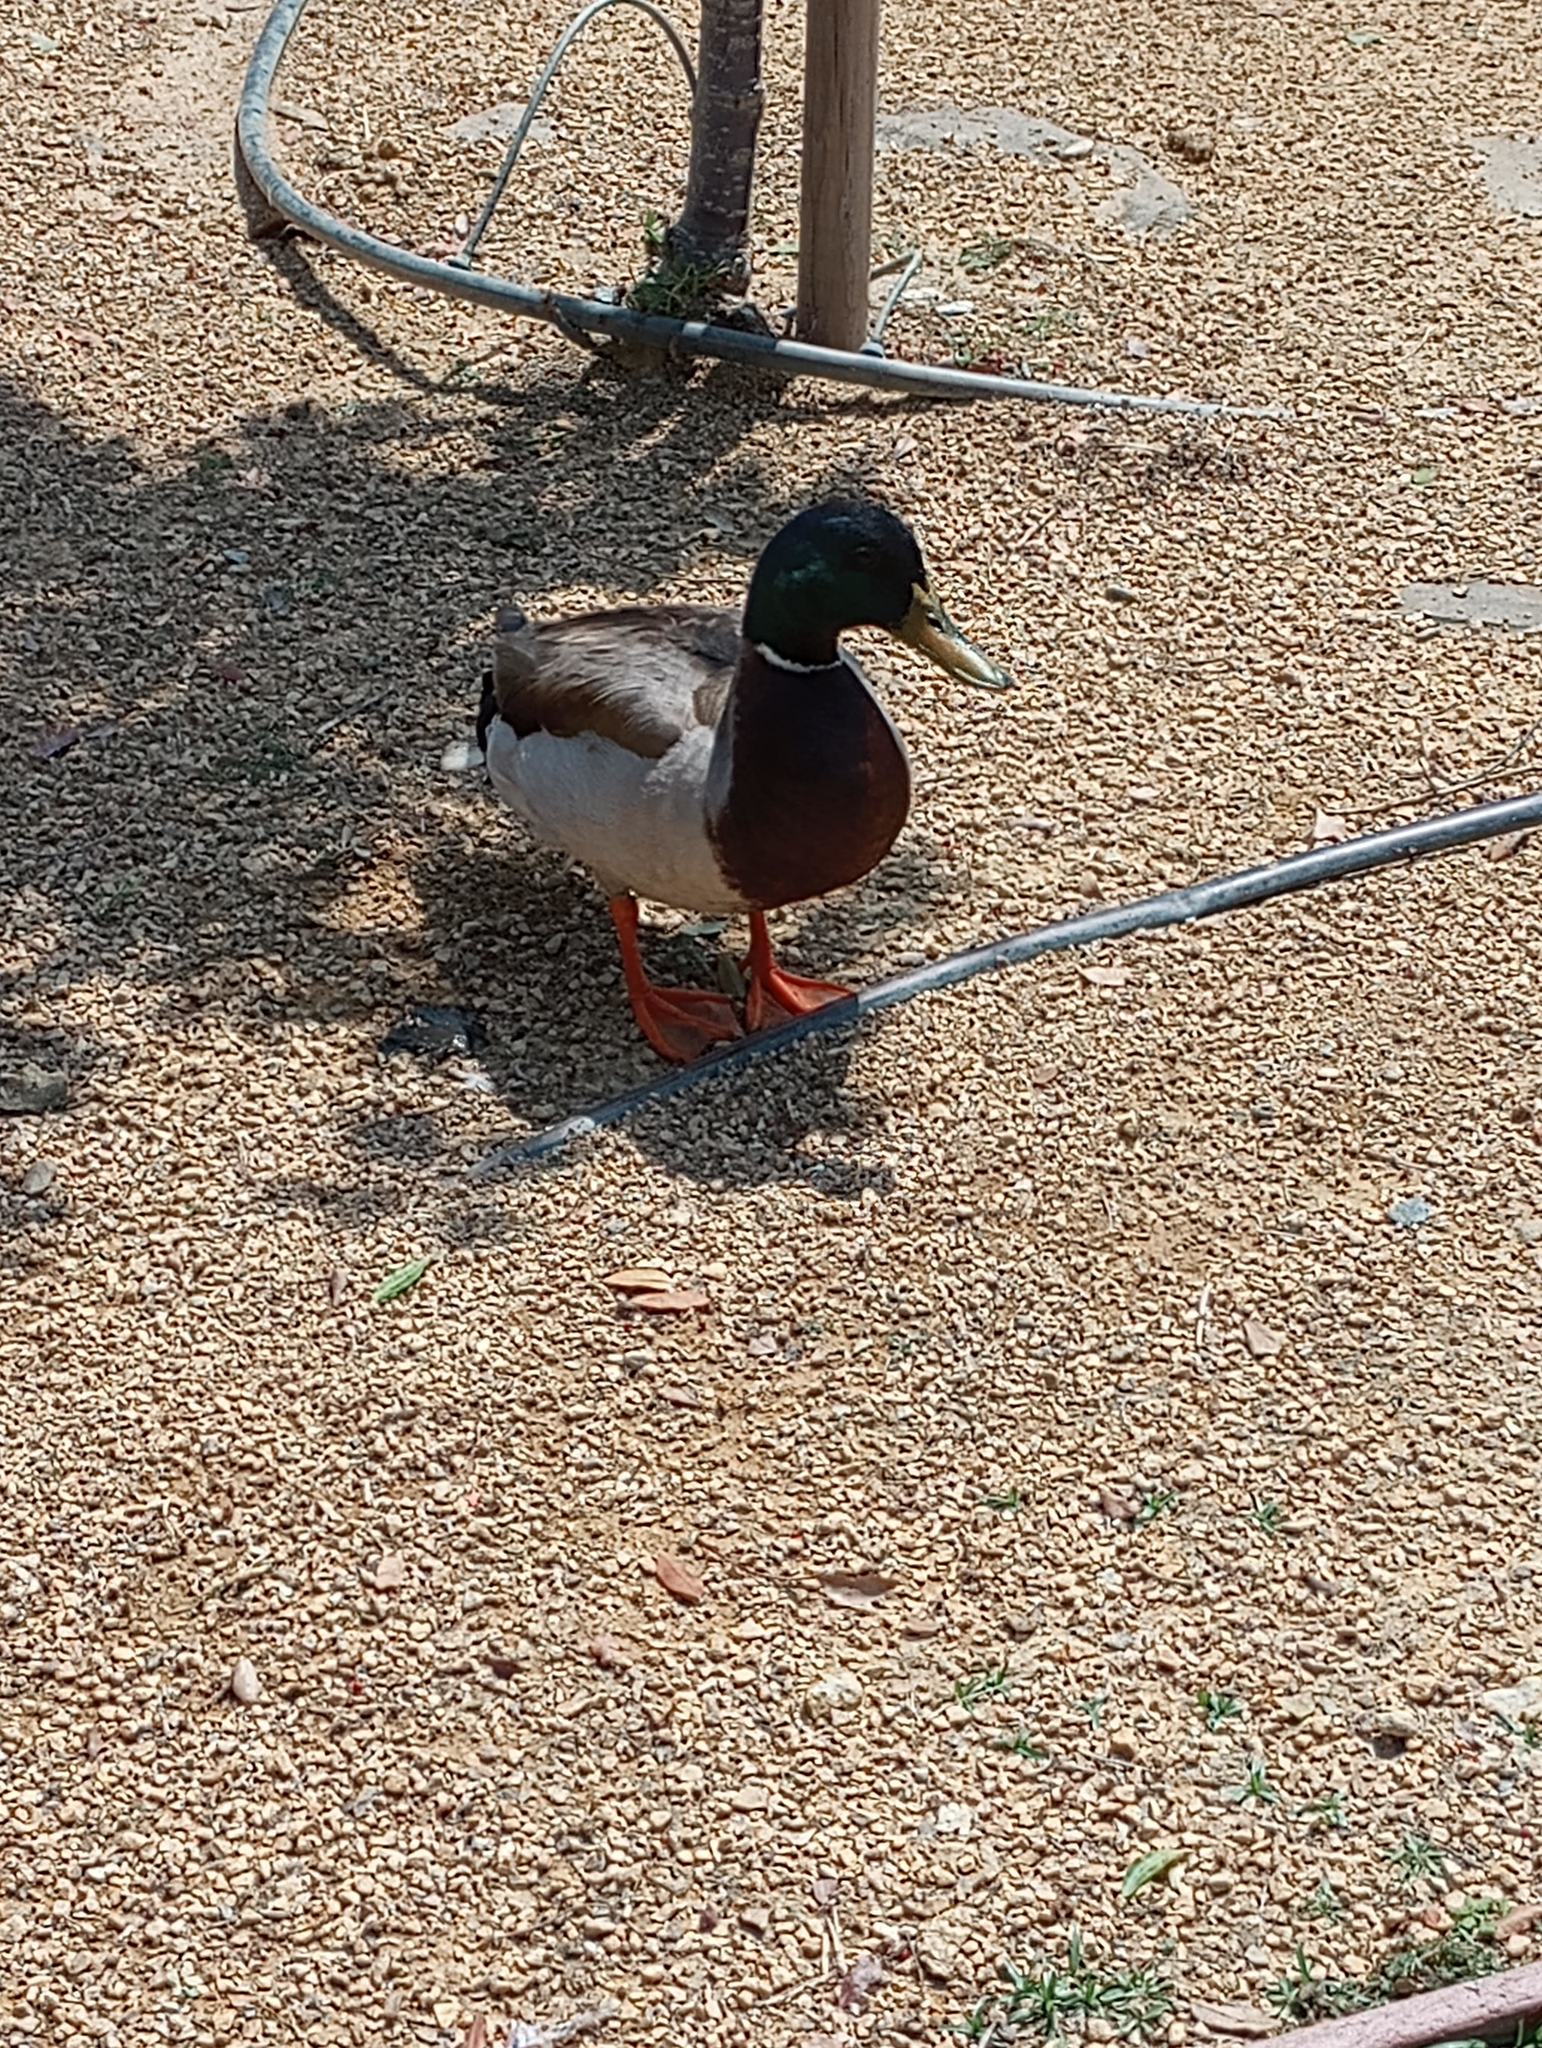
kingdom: Animalia
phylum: Chordata
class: Aves
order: Anseriformes
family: Anatidae
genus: Anas
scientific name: Anas platyrhynchos
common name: Mallard
